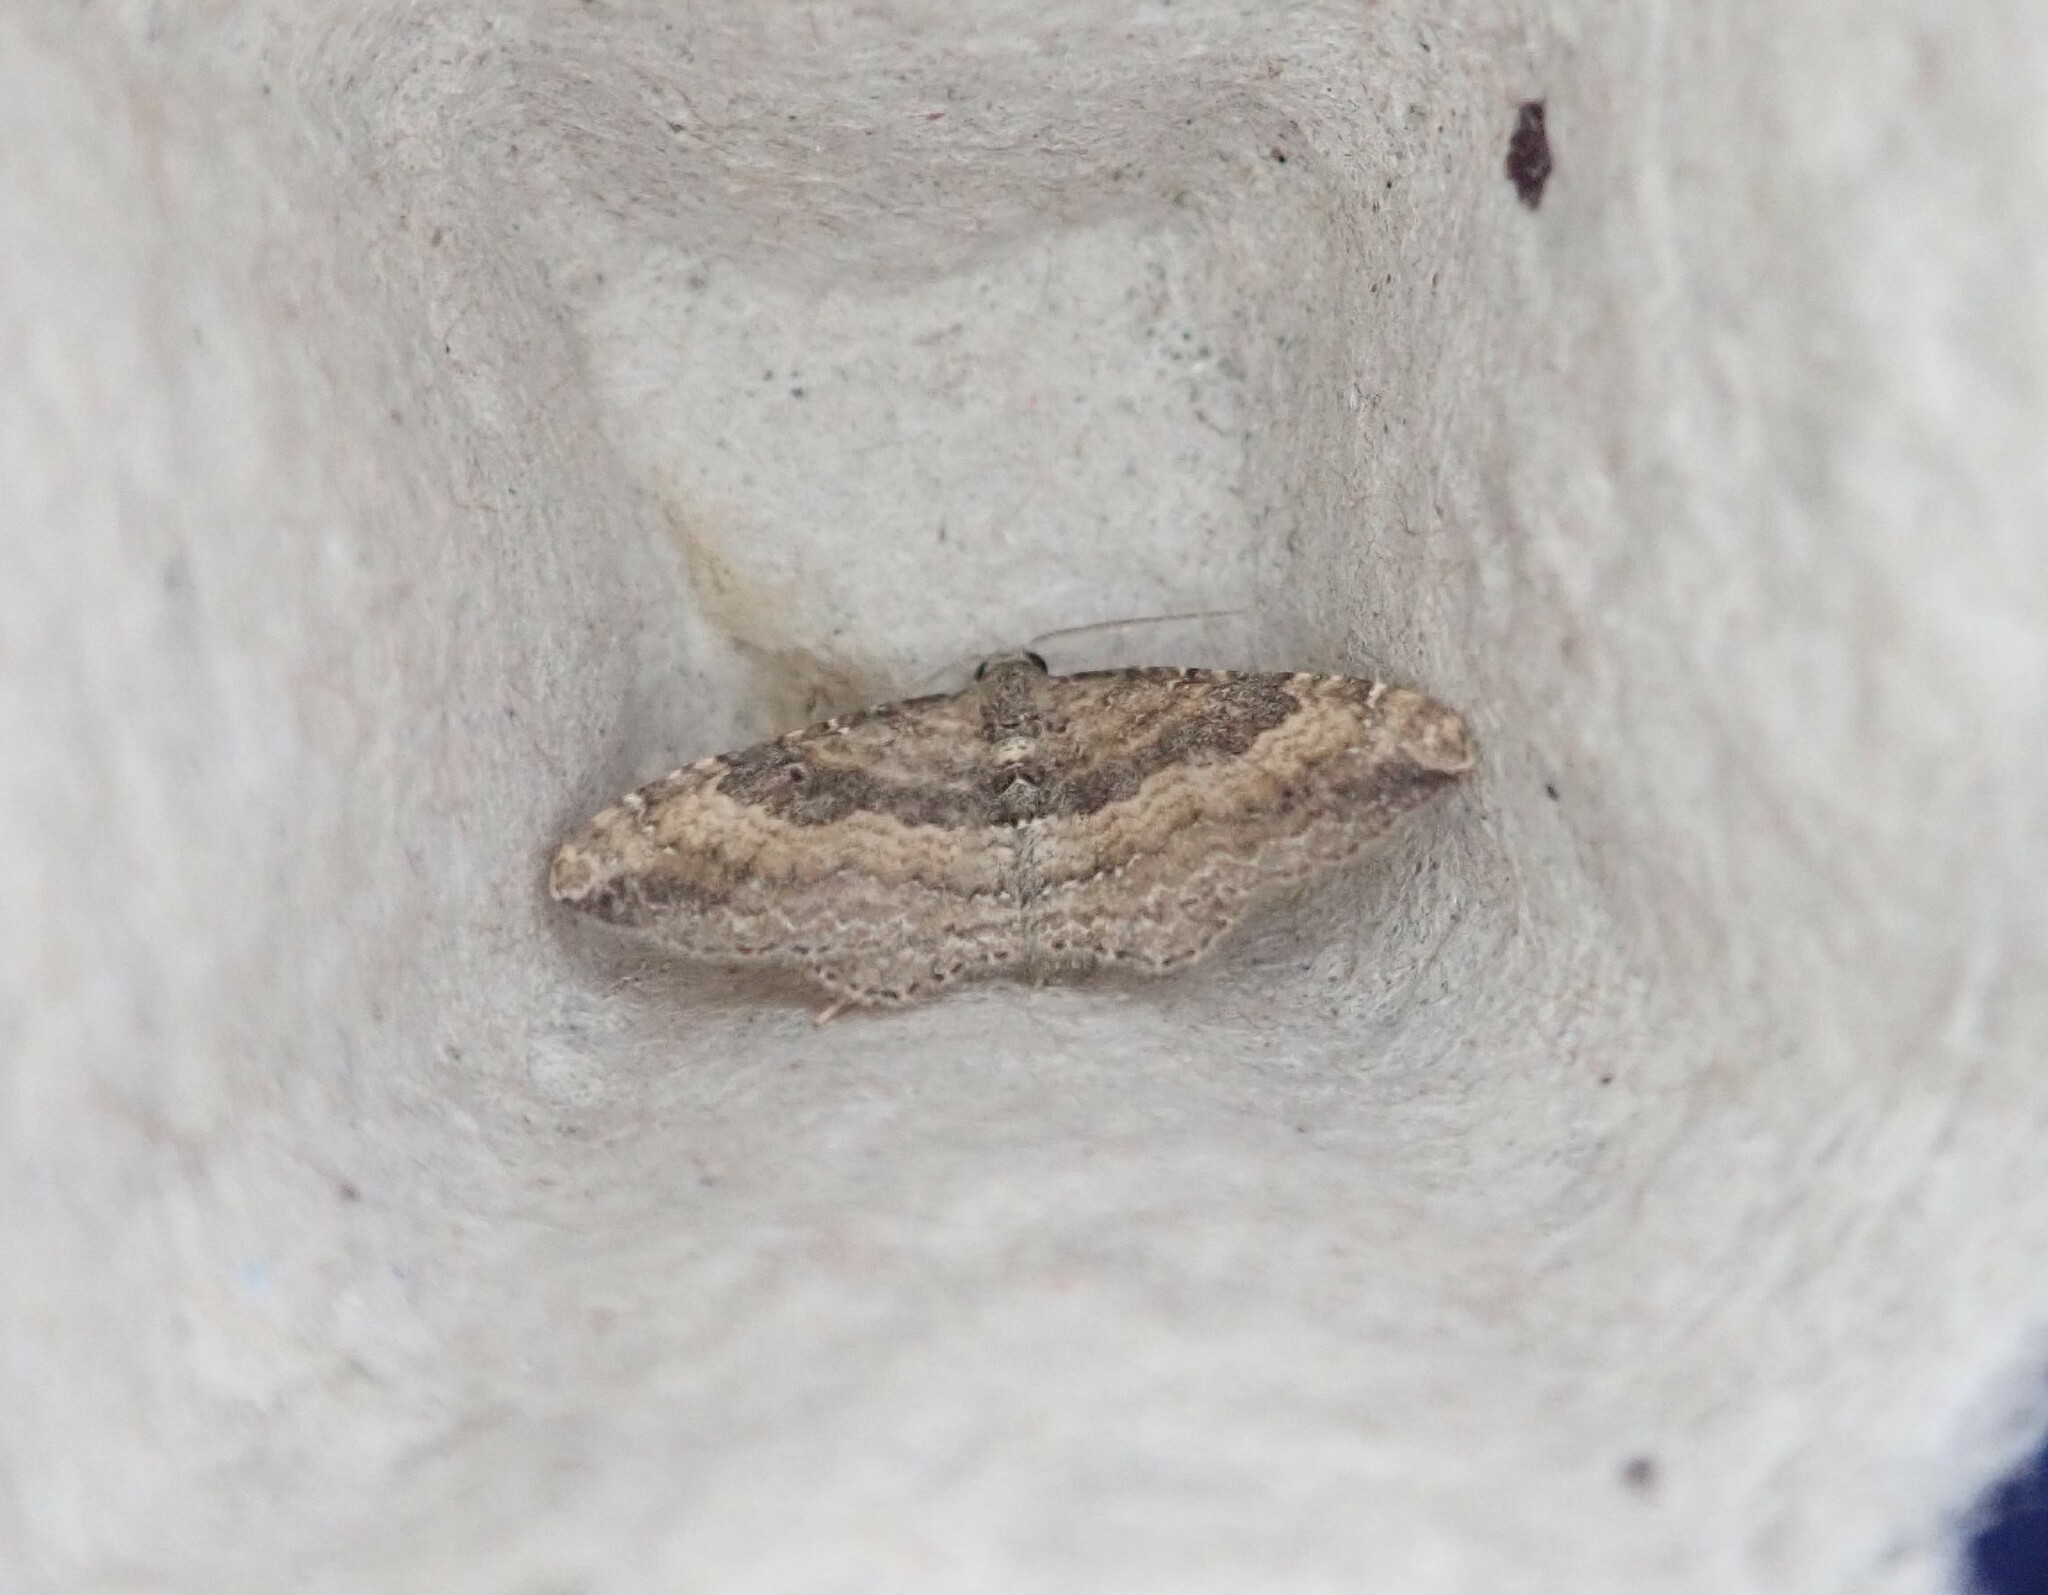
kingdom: Animalia
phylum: Arthropoda
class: Insecta
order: Lepidoptera
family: Geometridae
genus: Orthonama
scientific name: Orthonama obstipata
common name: The gem
